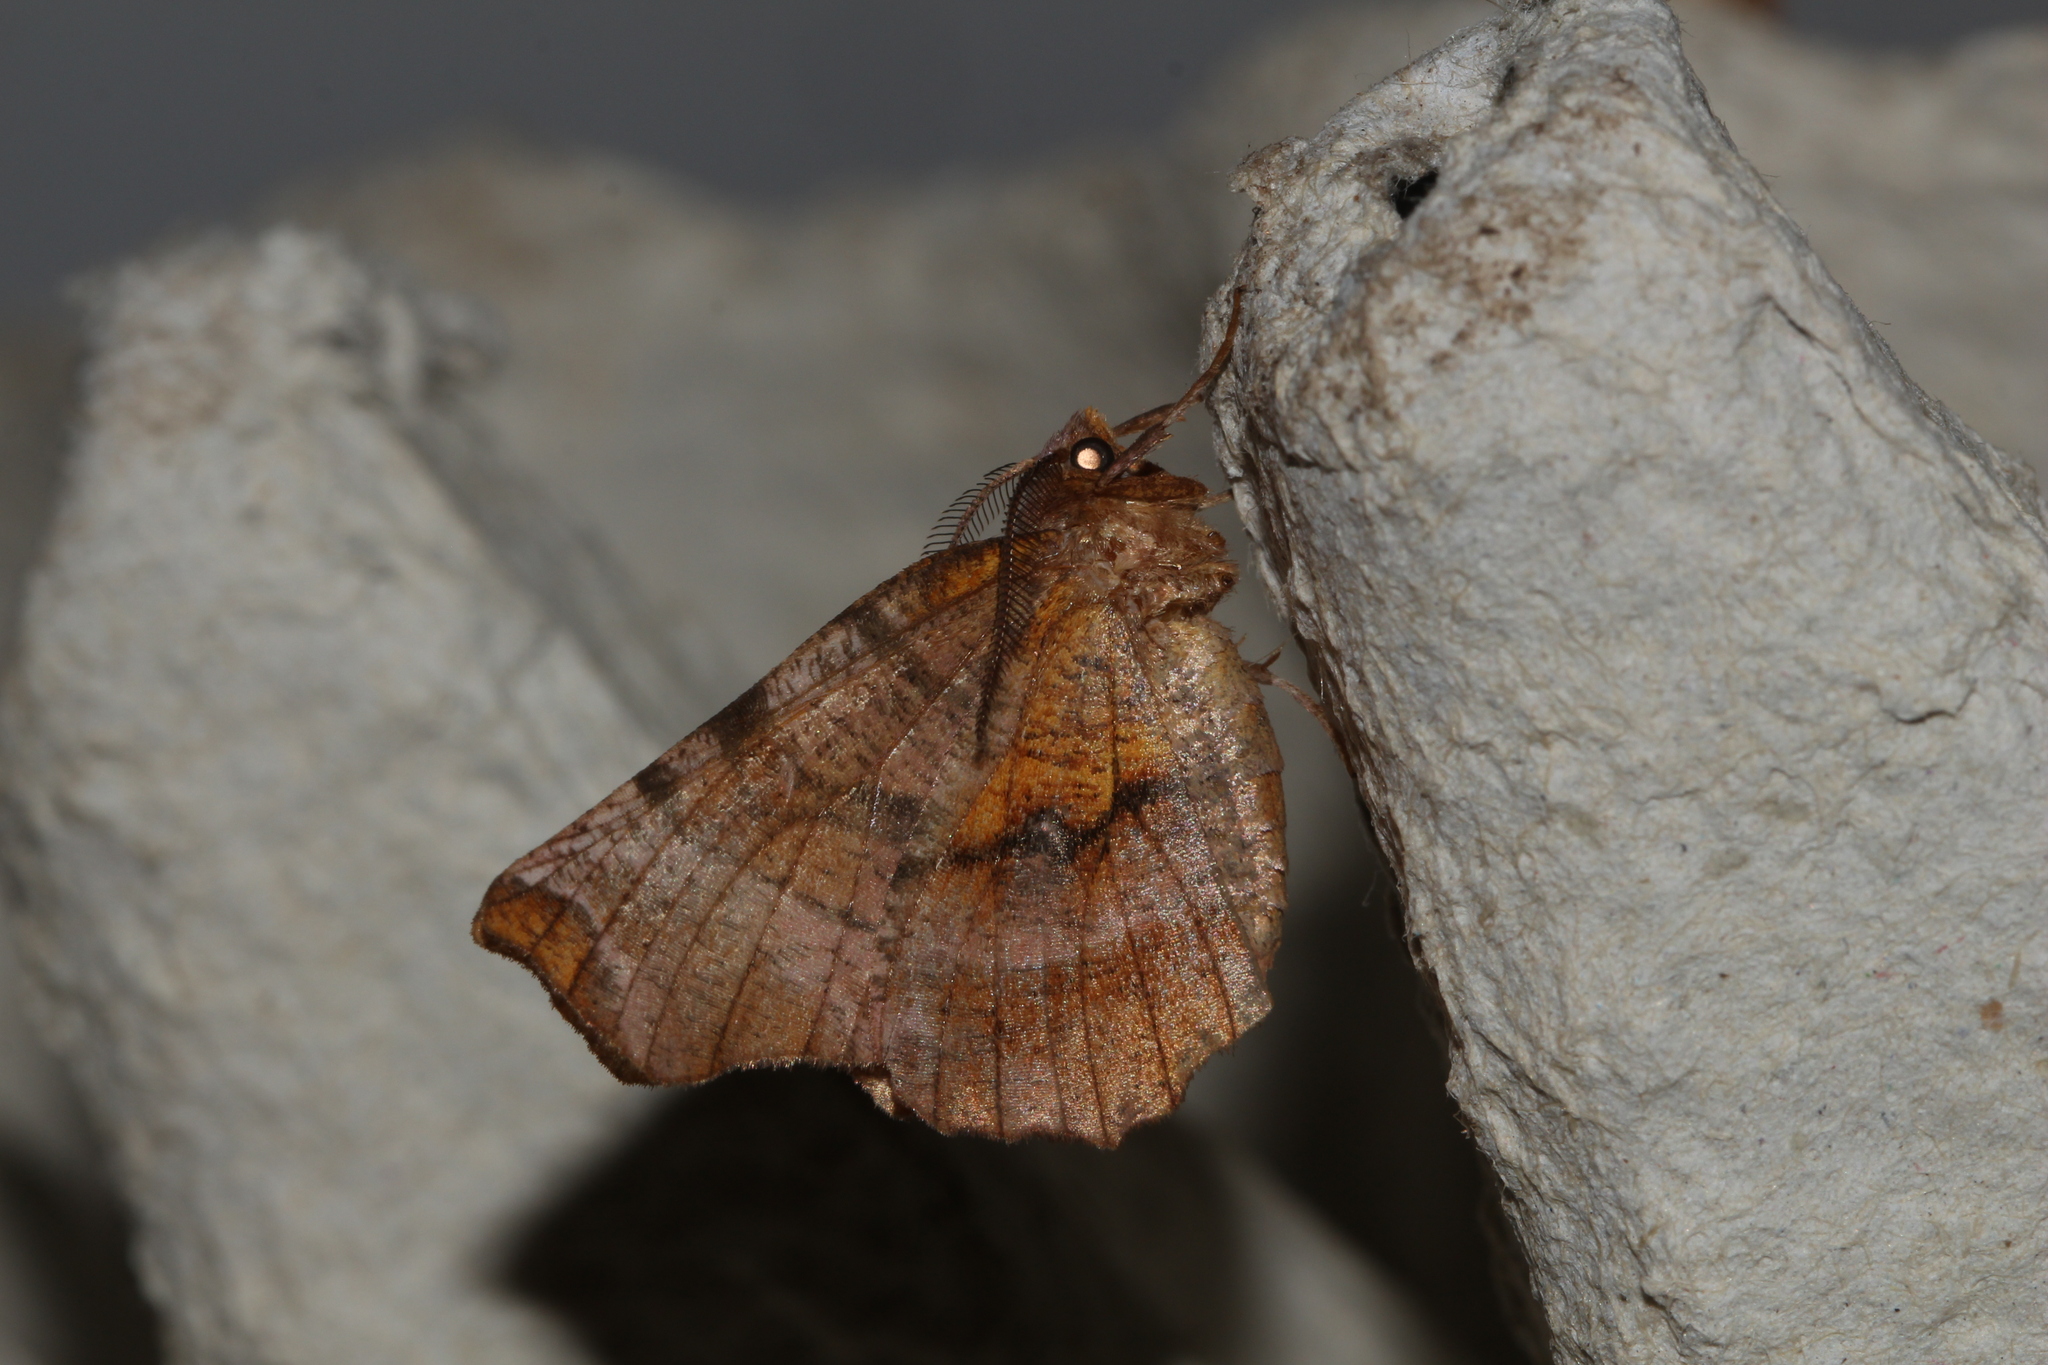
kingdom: Animalia
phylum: Arthropoda
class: Insecta
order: Lepidoptera
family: Geometridae
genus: Selenia
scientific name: Selenia dentaria
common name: Early thorn
